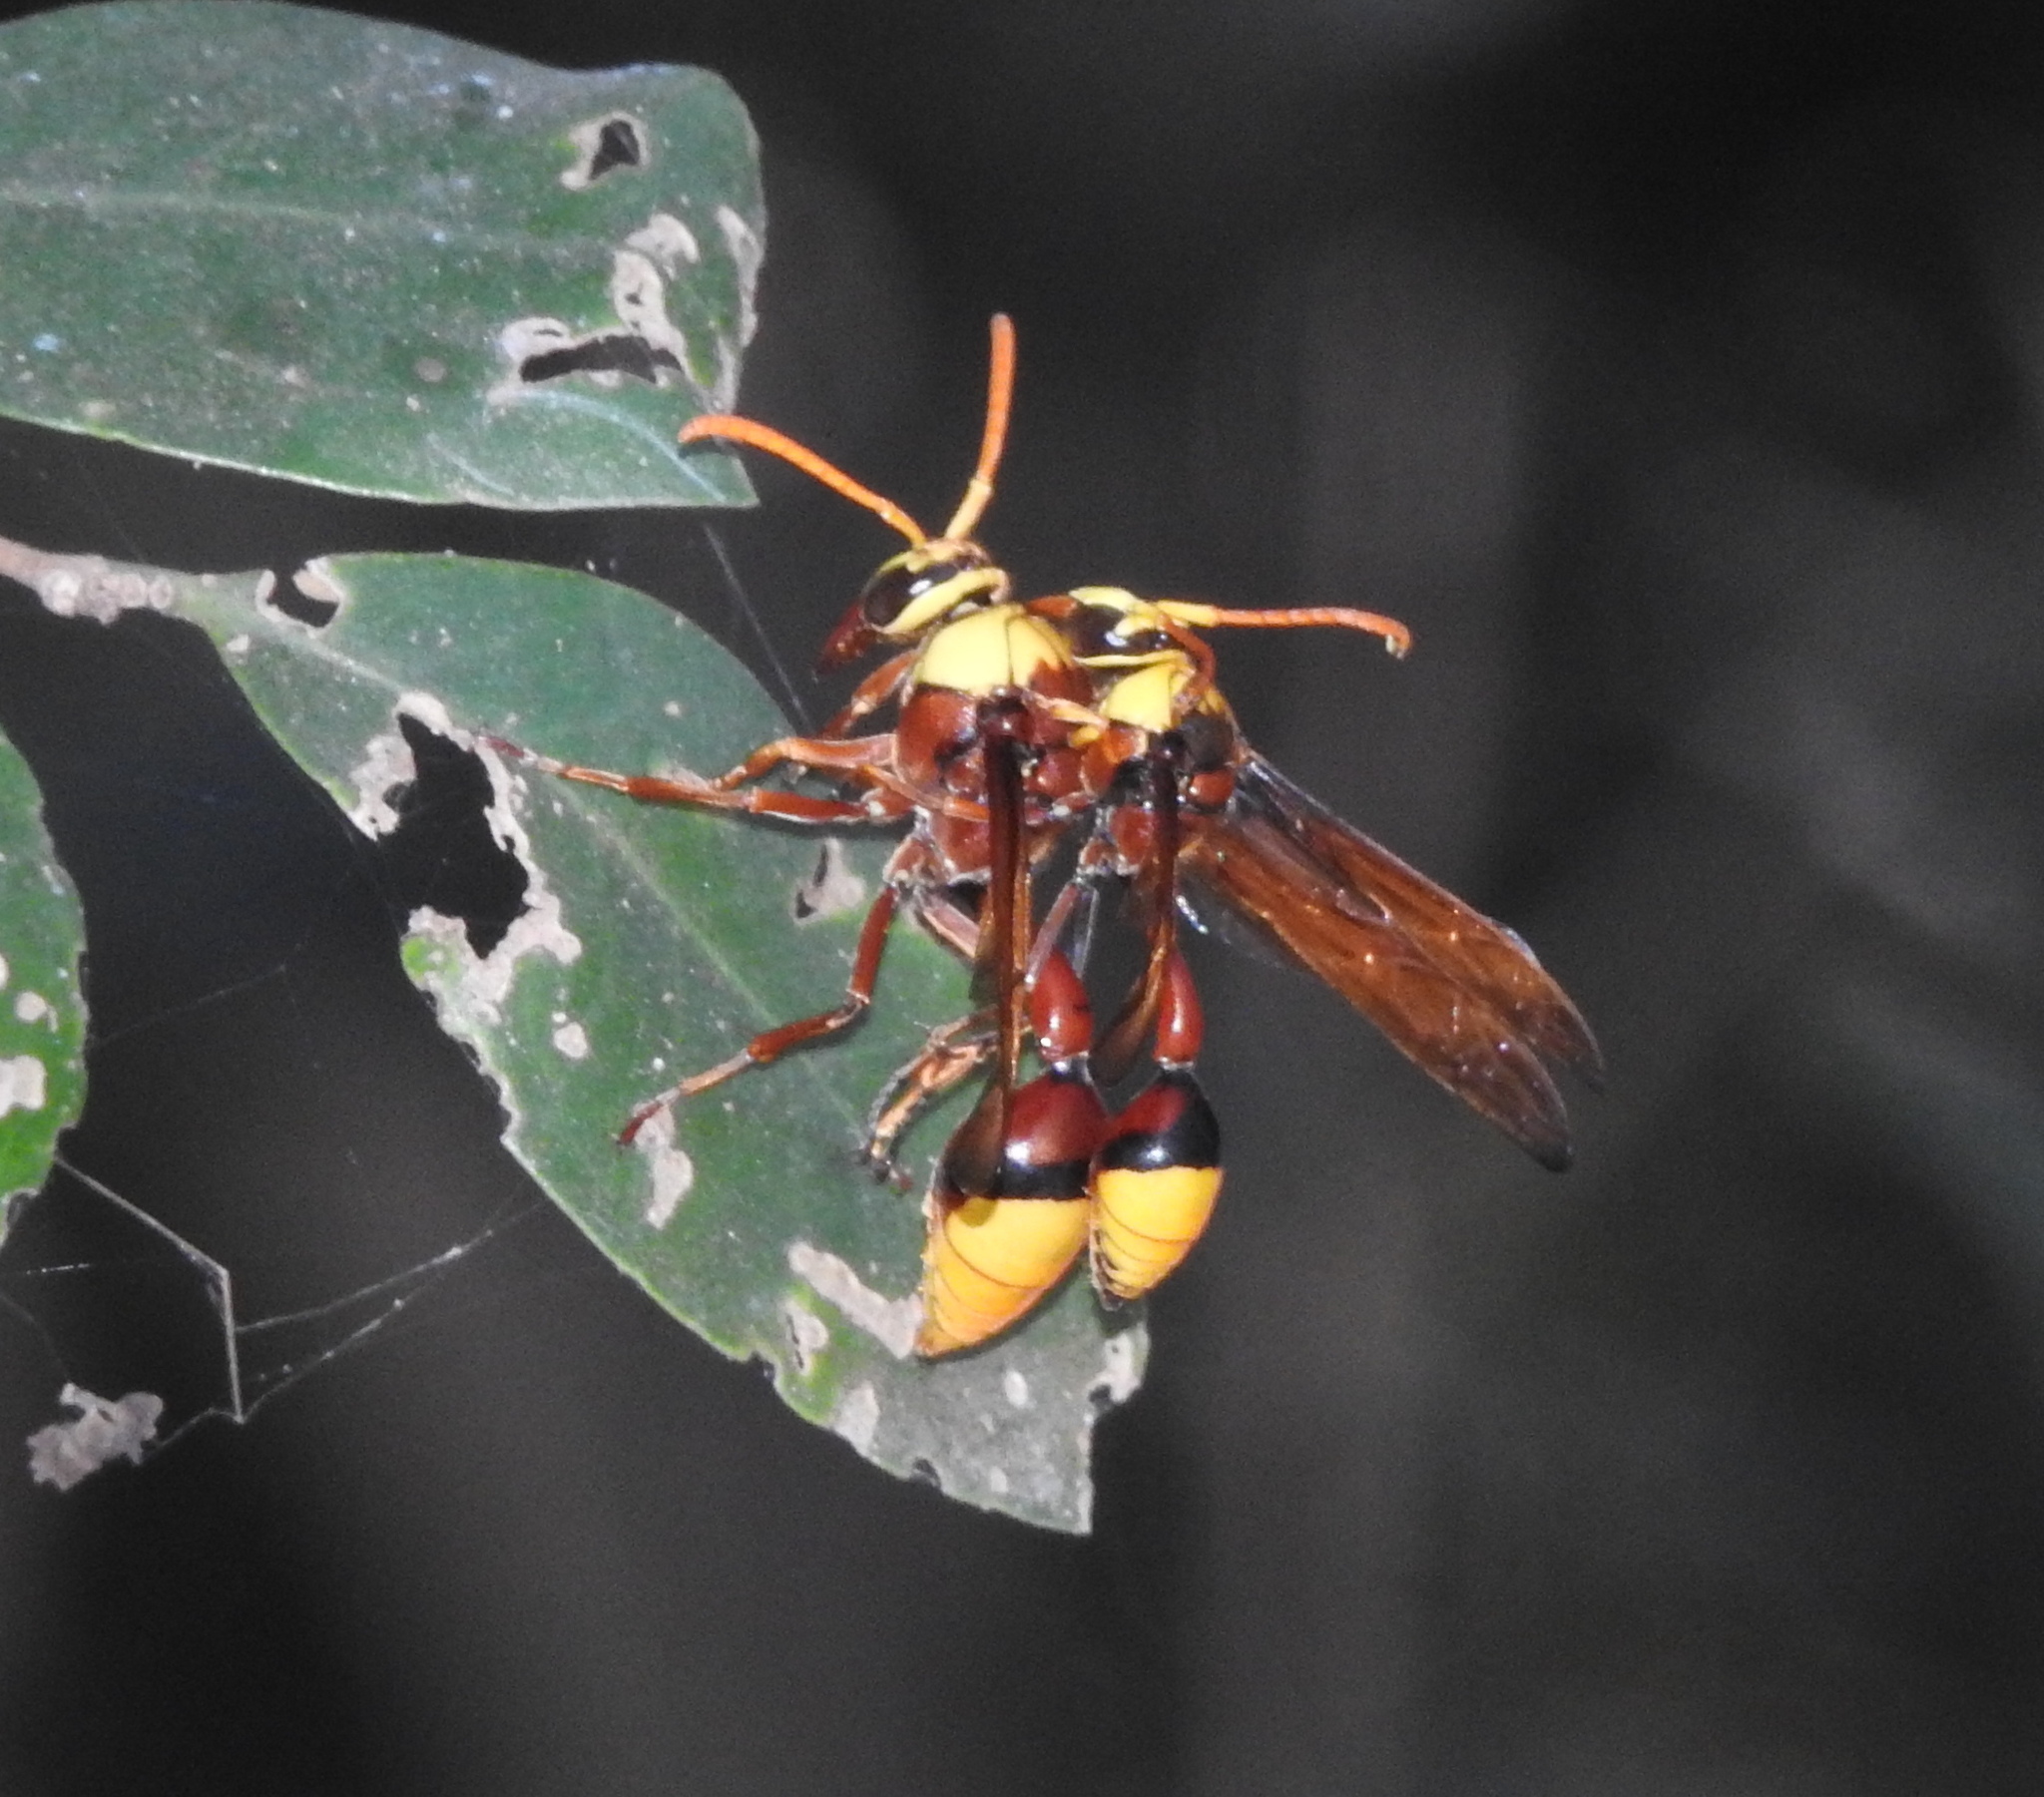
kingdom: Animalia
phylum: Arthropoda
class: Insecta
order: Hymenoptera
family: Eumenidae
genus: Delta
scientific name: Delta pyriforme
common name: Wasp
